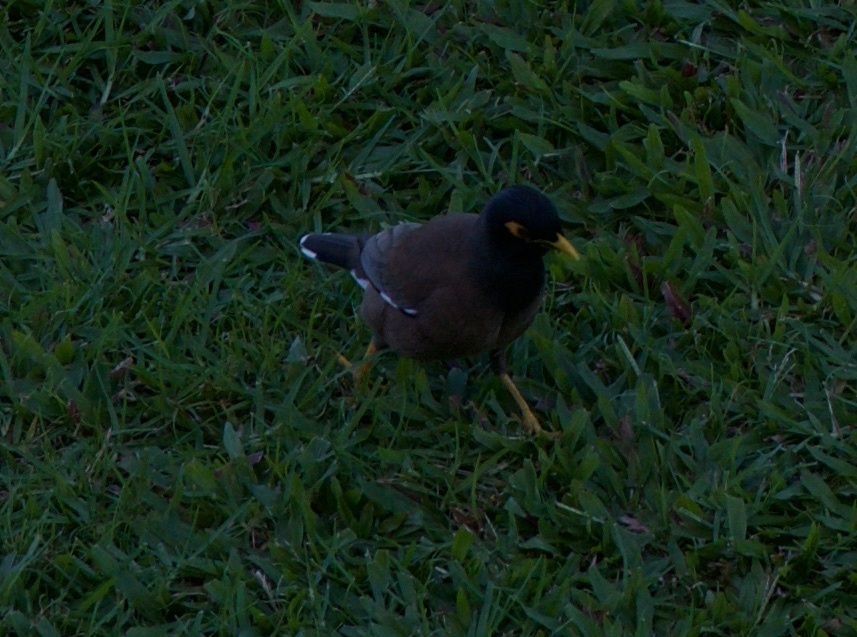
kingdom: Animalia
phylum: Chordata
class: Aves
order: Passeriformes
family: Sturnidae
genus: Acridotheres
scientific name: Acridotheres tristis
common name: Common myna
